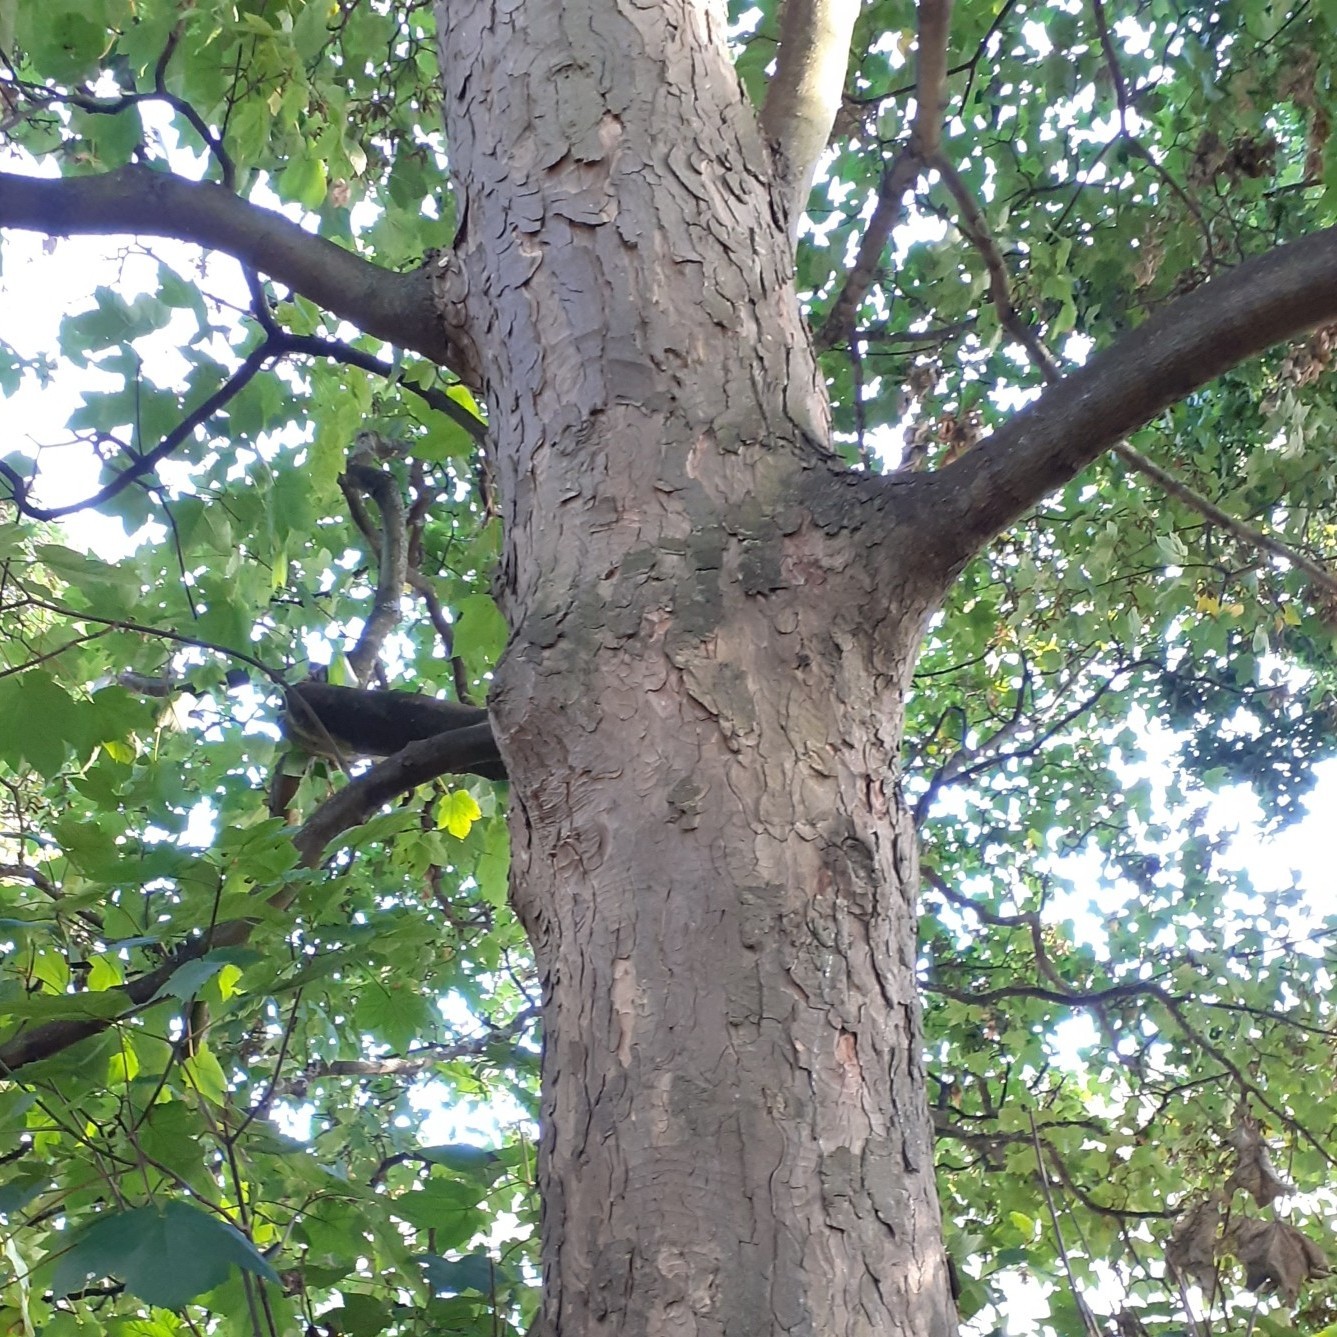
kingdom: Plantae
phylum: Tracheophyta
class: Magnoliopsida
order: Fagales
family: Fagaceae
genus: Quercus
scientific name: Quercus robur
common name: Pedunculate oak
